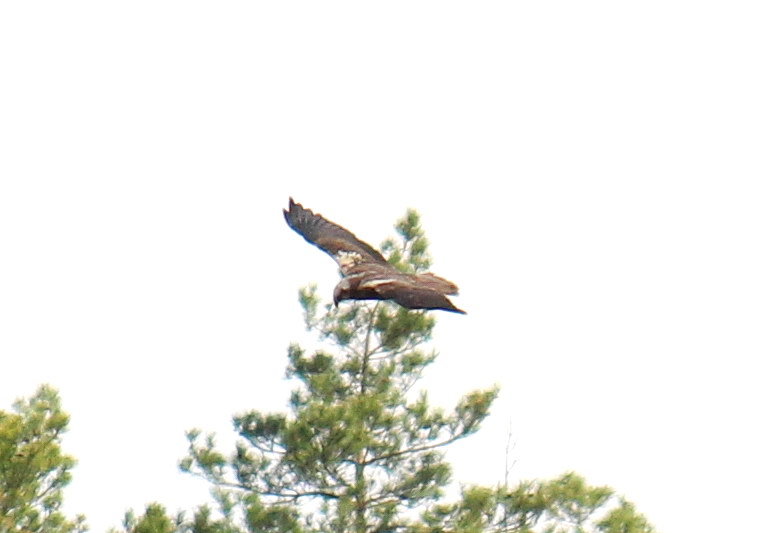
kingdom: Animalia
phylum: Chordata
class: Aves
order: Accipitriformes
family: Accipitridae
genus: Circus
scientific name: Circus aeruginosus
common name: Western marsh harrier
